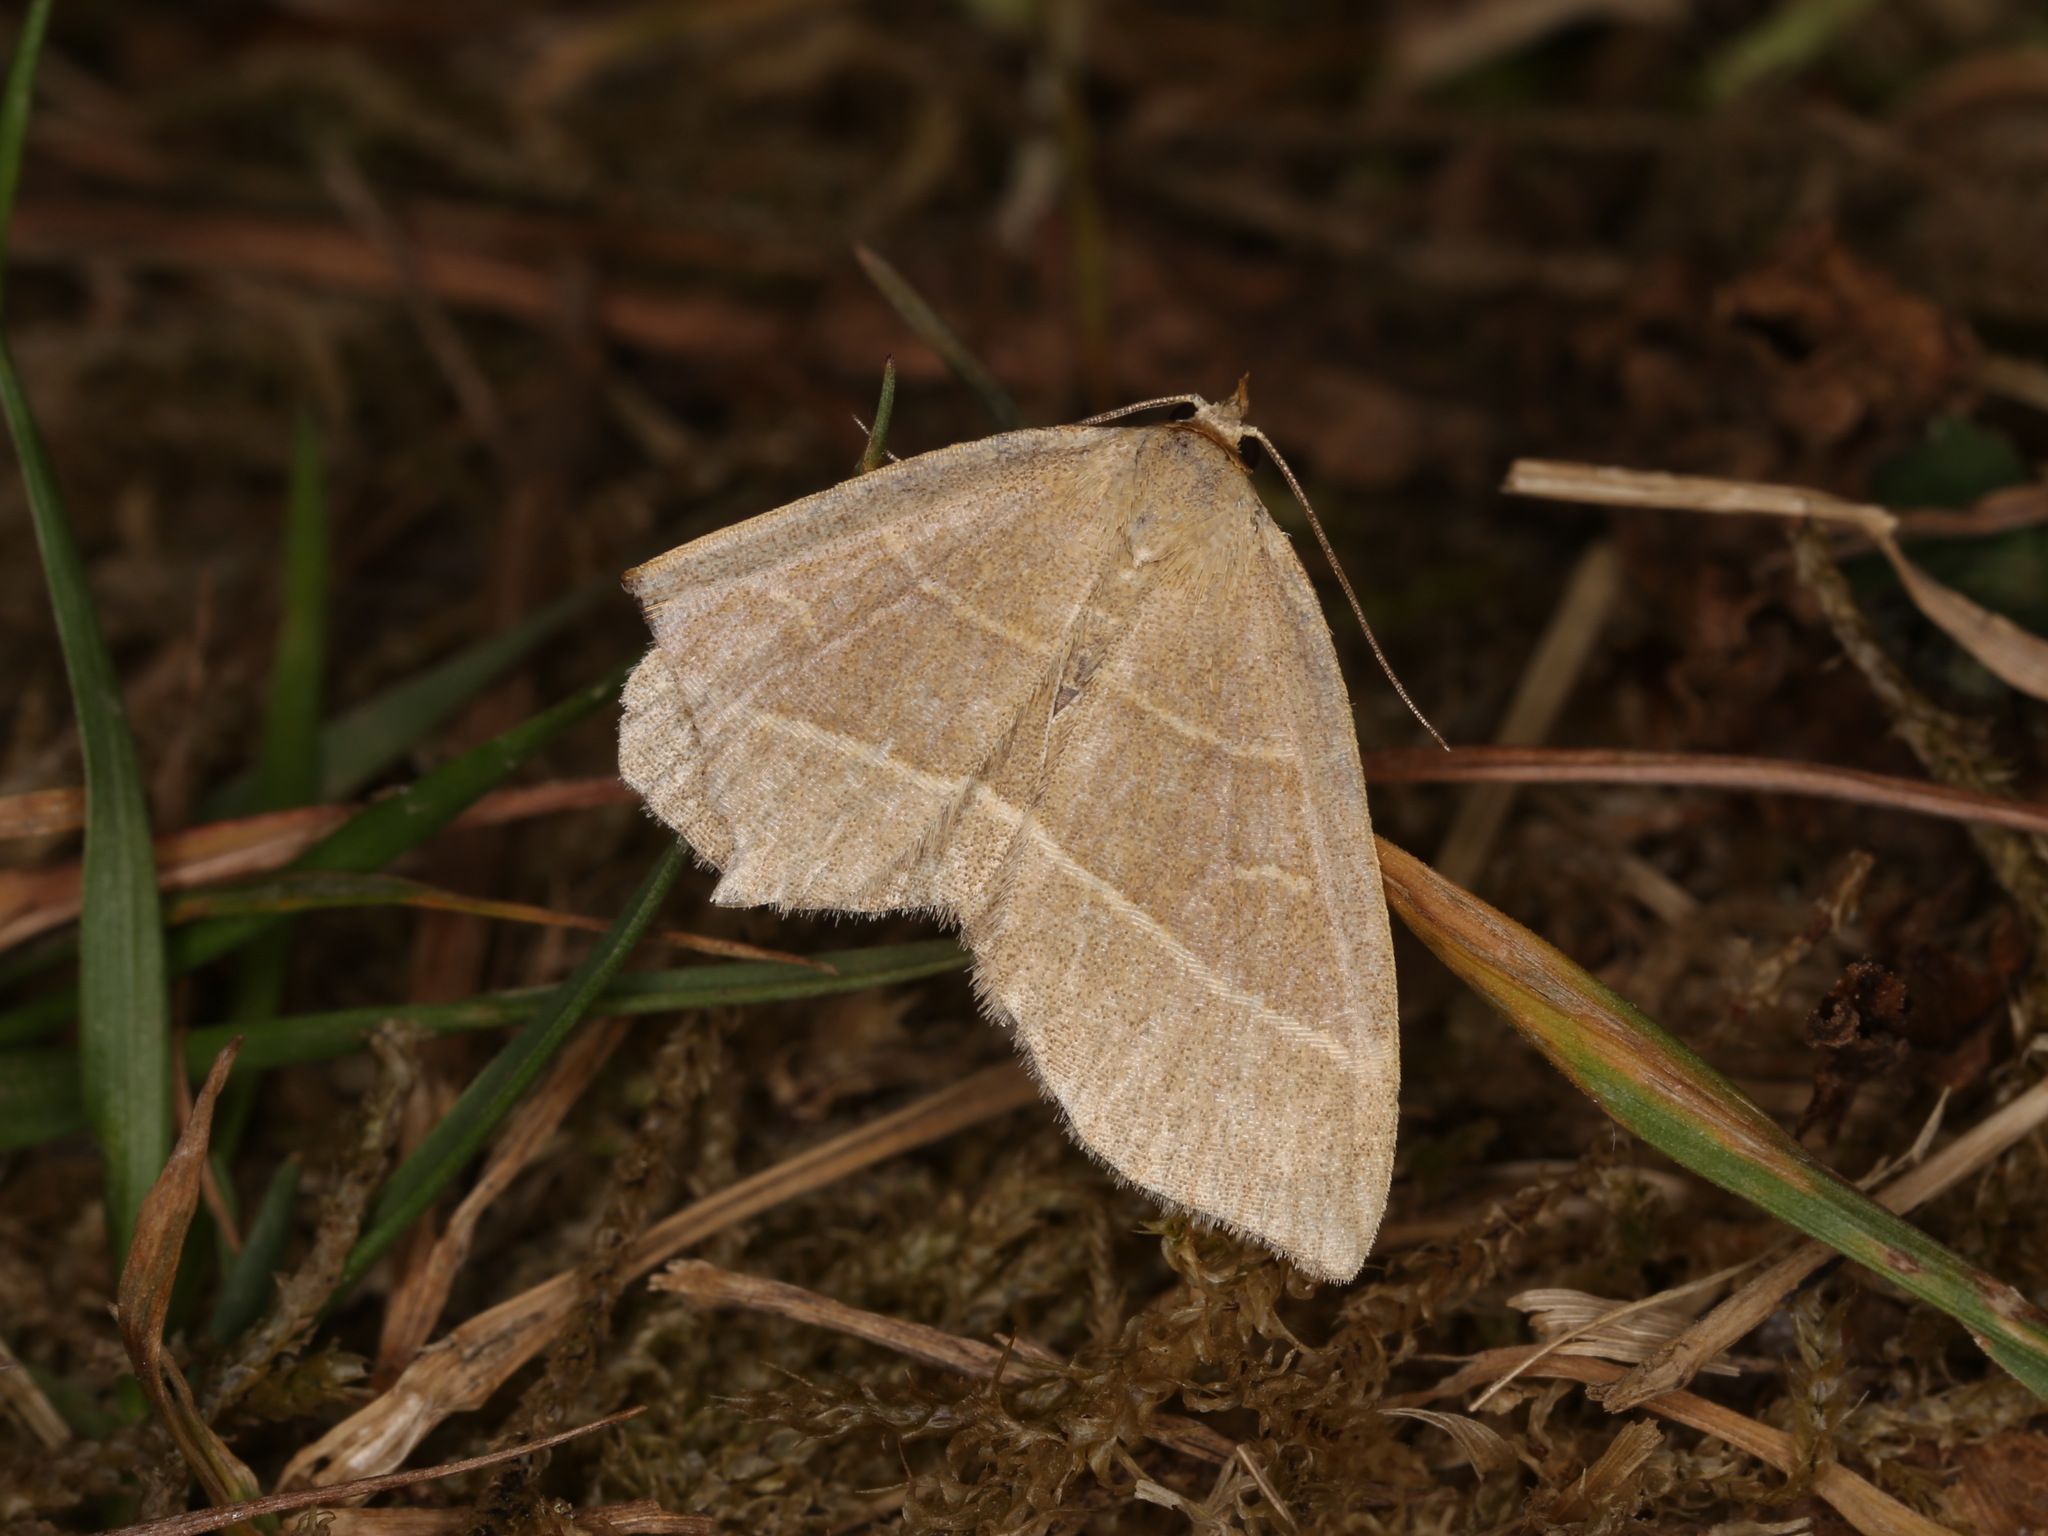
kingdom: Animalia
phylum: Arthropoda
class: Insecta
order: Lepidoptera
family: Erebidae
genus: Trisateles
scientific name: Trisateles emortualis
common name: Olive crescent
